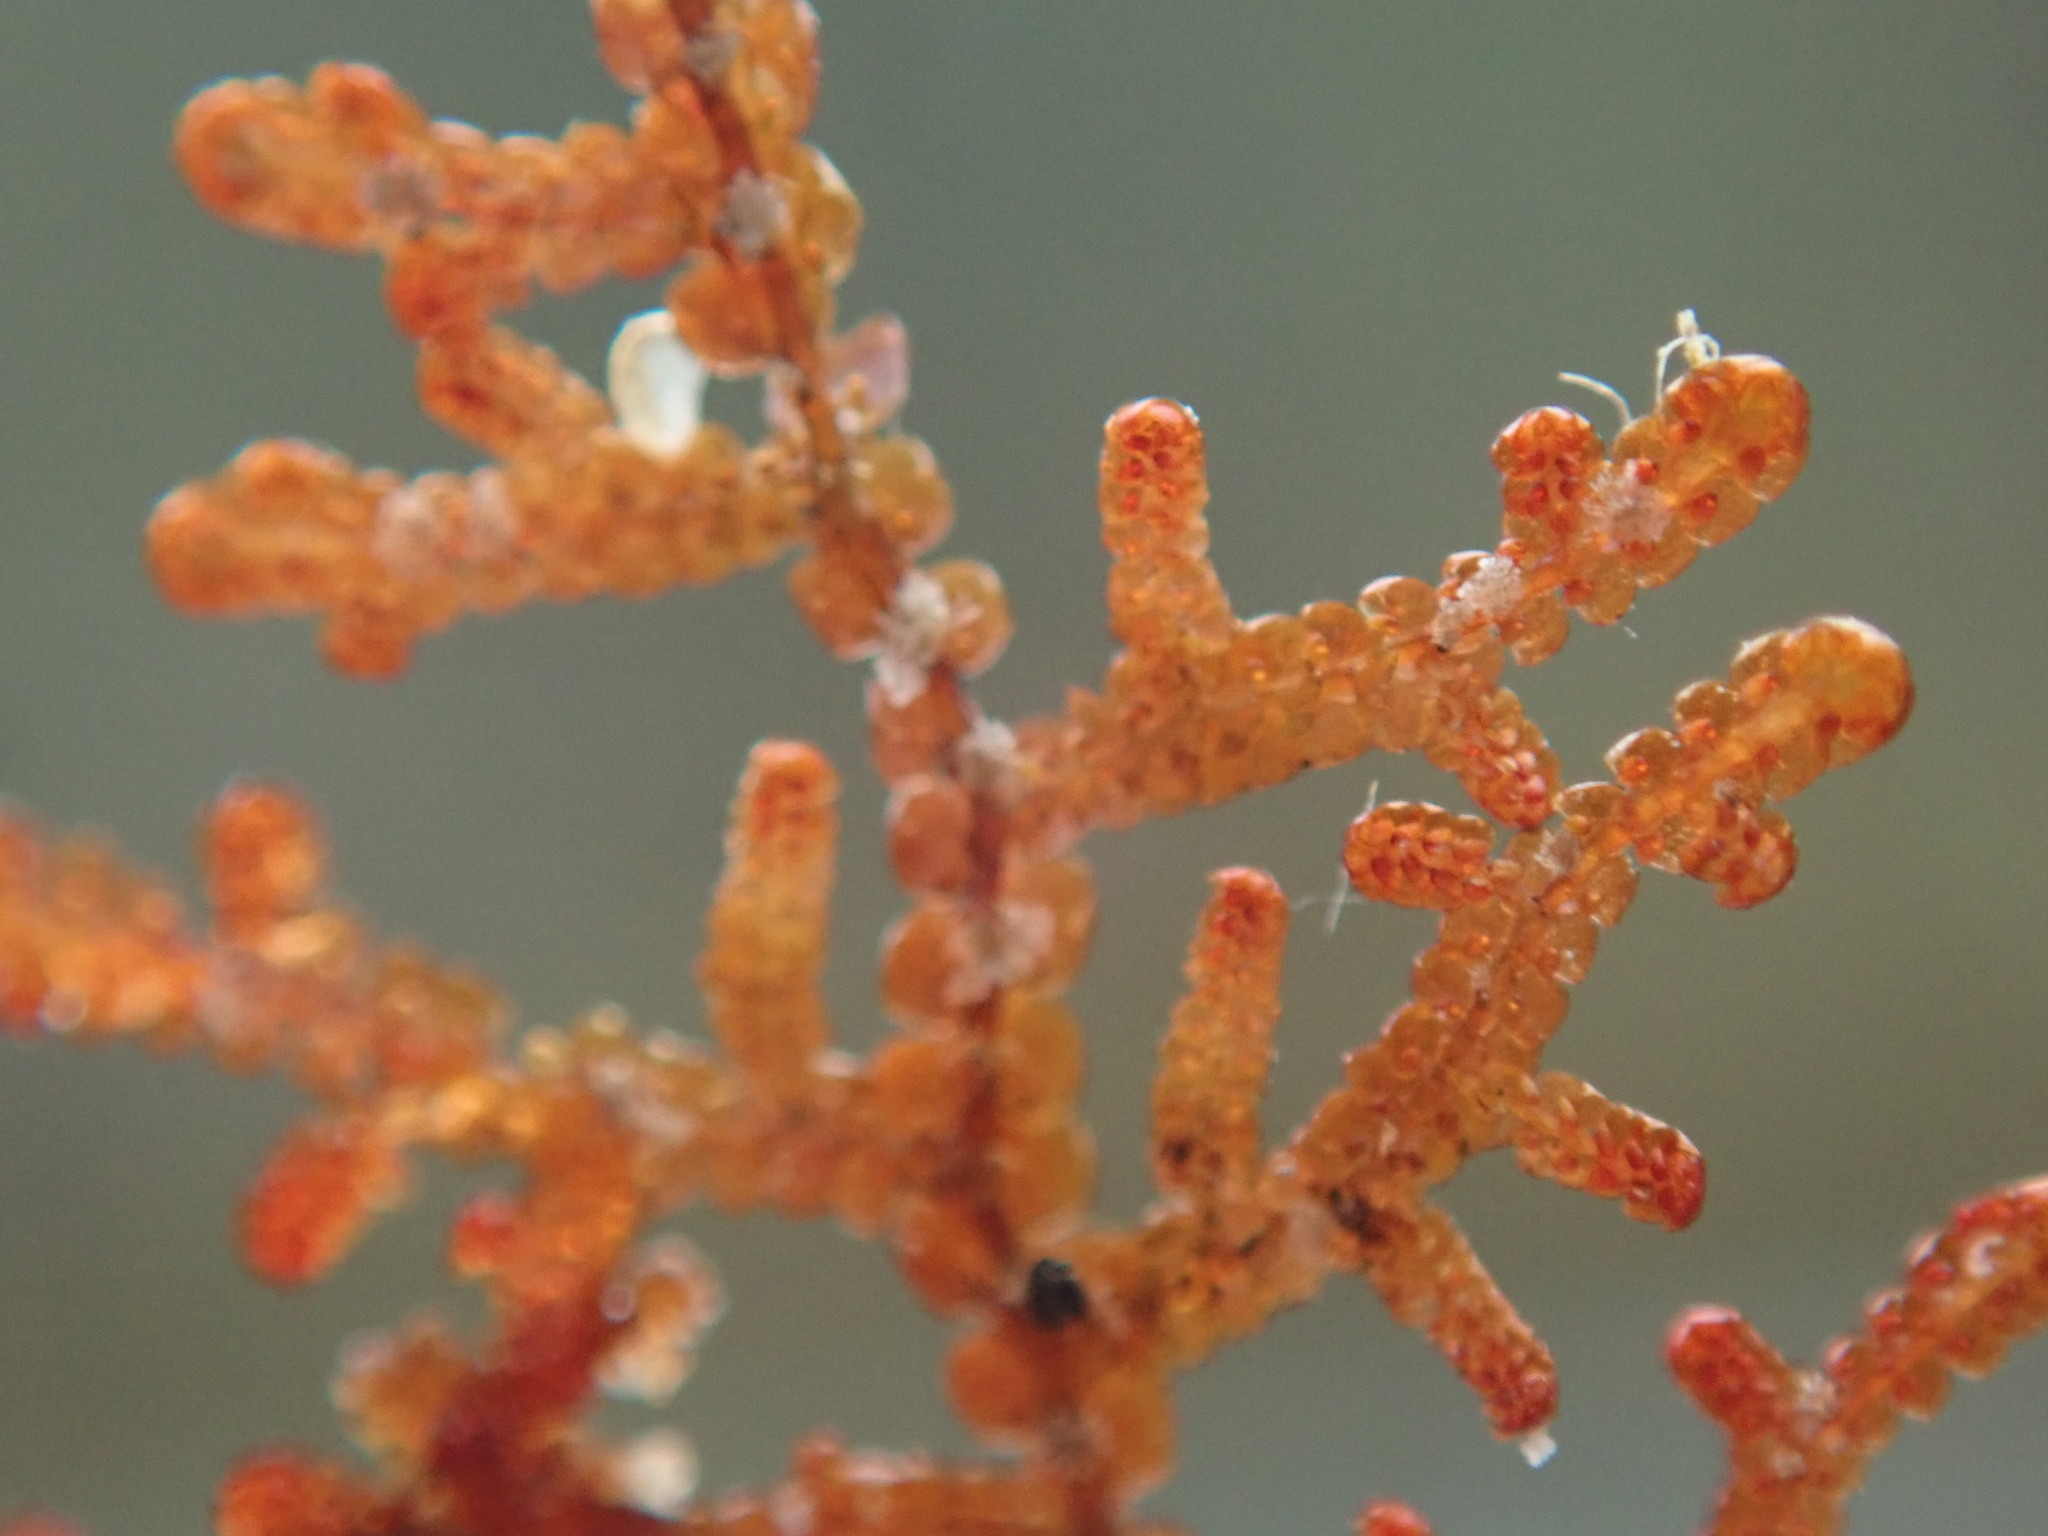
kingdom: Plantae
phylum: Marchantiophyta
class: Jungermanniopsida
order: Porellales
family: Frullaniaceae
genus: Frullania
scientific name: Frullania nisquallensis
